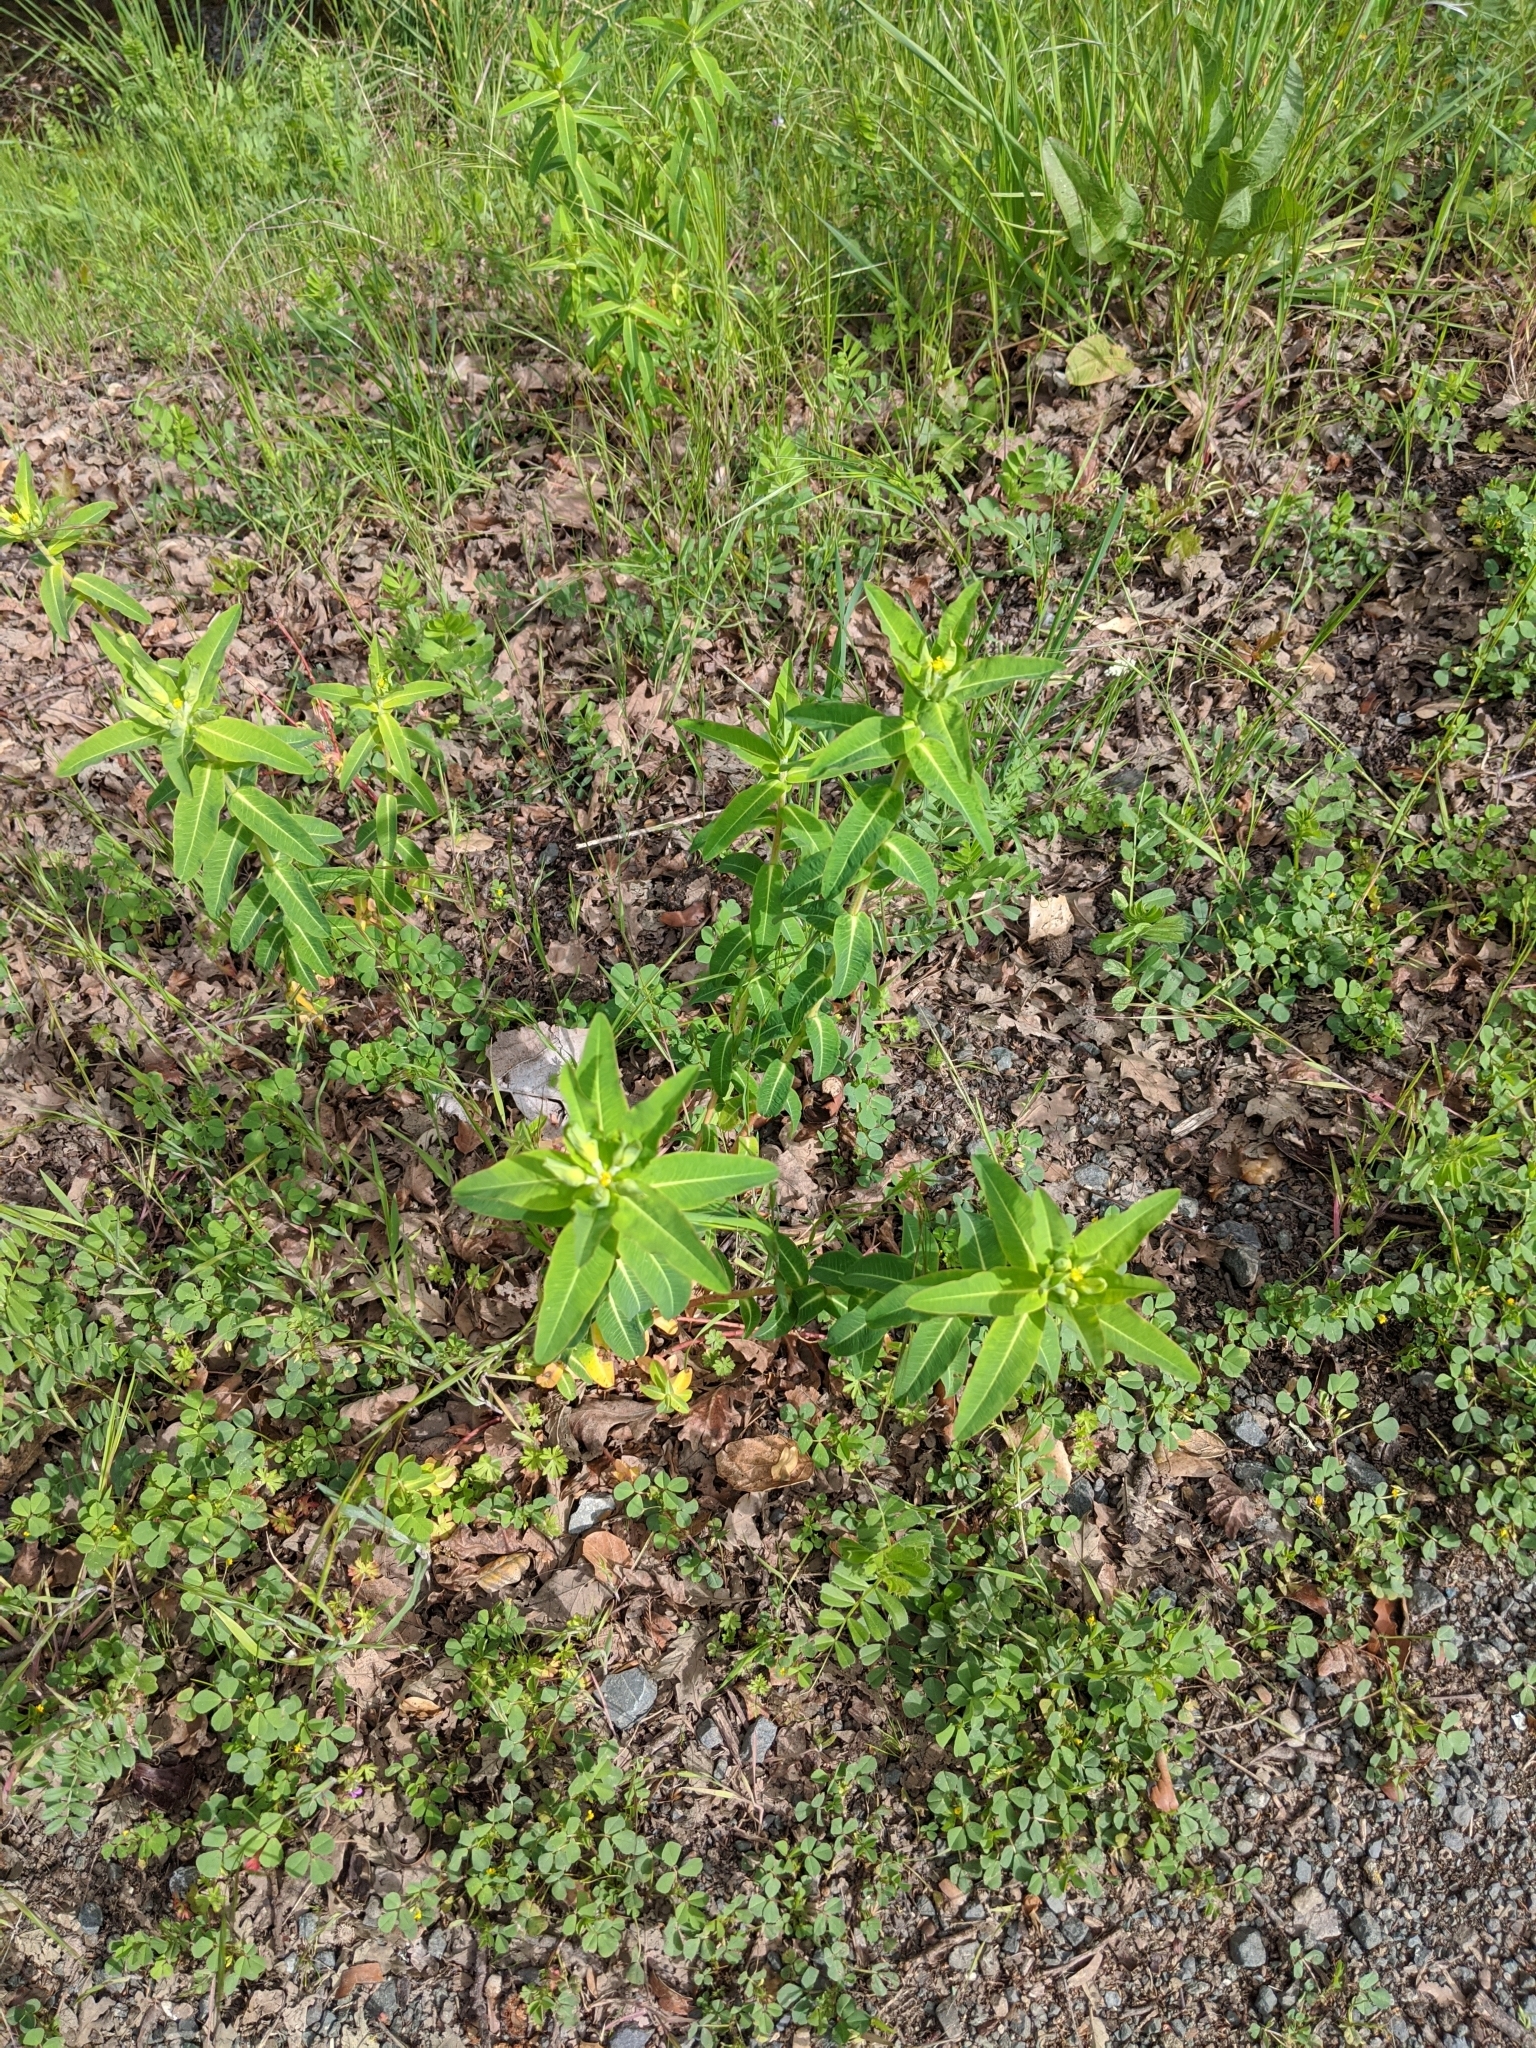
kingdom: Plantae
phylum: Tracheophyta
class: Magnoliopsida
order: Malpighiales
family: Euphorbiaceae
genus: Euphorbia
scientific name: Euphorbia oblongata
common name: Balkan spurge
